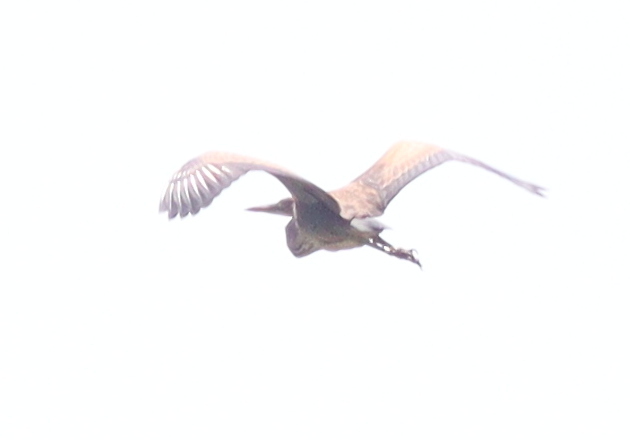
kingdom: Animalia
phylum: Chordata
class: Aves
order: Pelecaniformes
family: Ardeidae
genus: Ardea
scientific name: Ardea purpurea
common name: Purple heron
